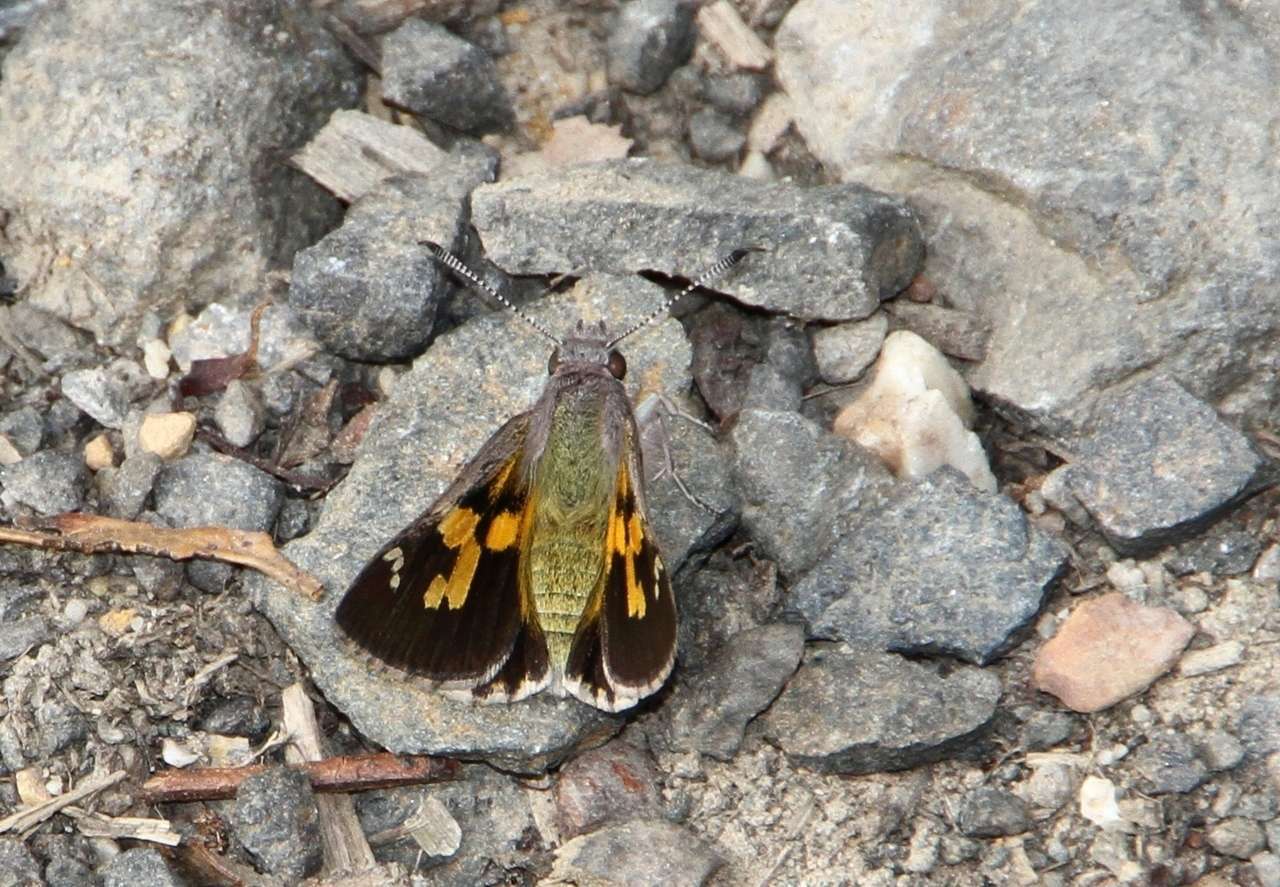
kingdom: Animalia
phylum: Arthropoda
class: Insecta
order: Lepidoptera
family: Hesperiidae
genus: Trapezites
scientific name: Trapezites phigalioides
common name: Montane ochre
